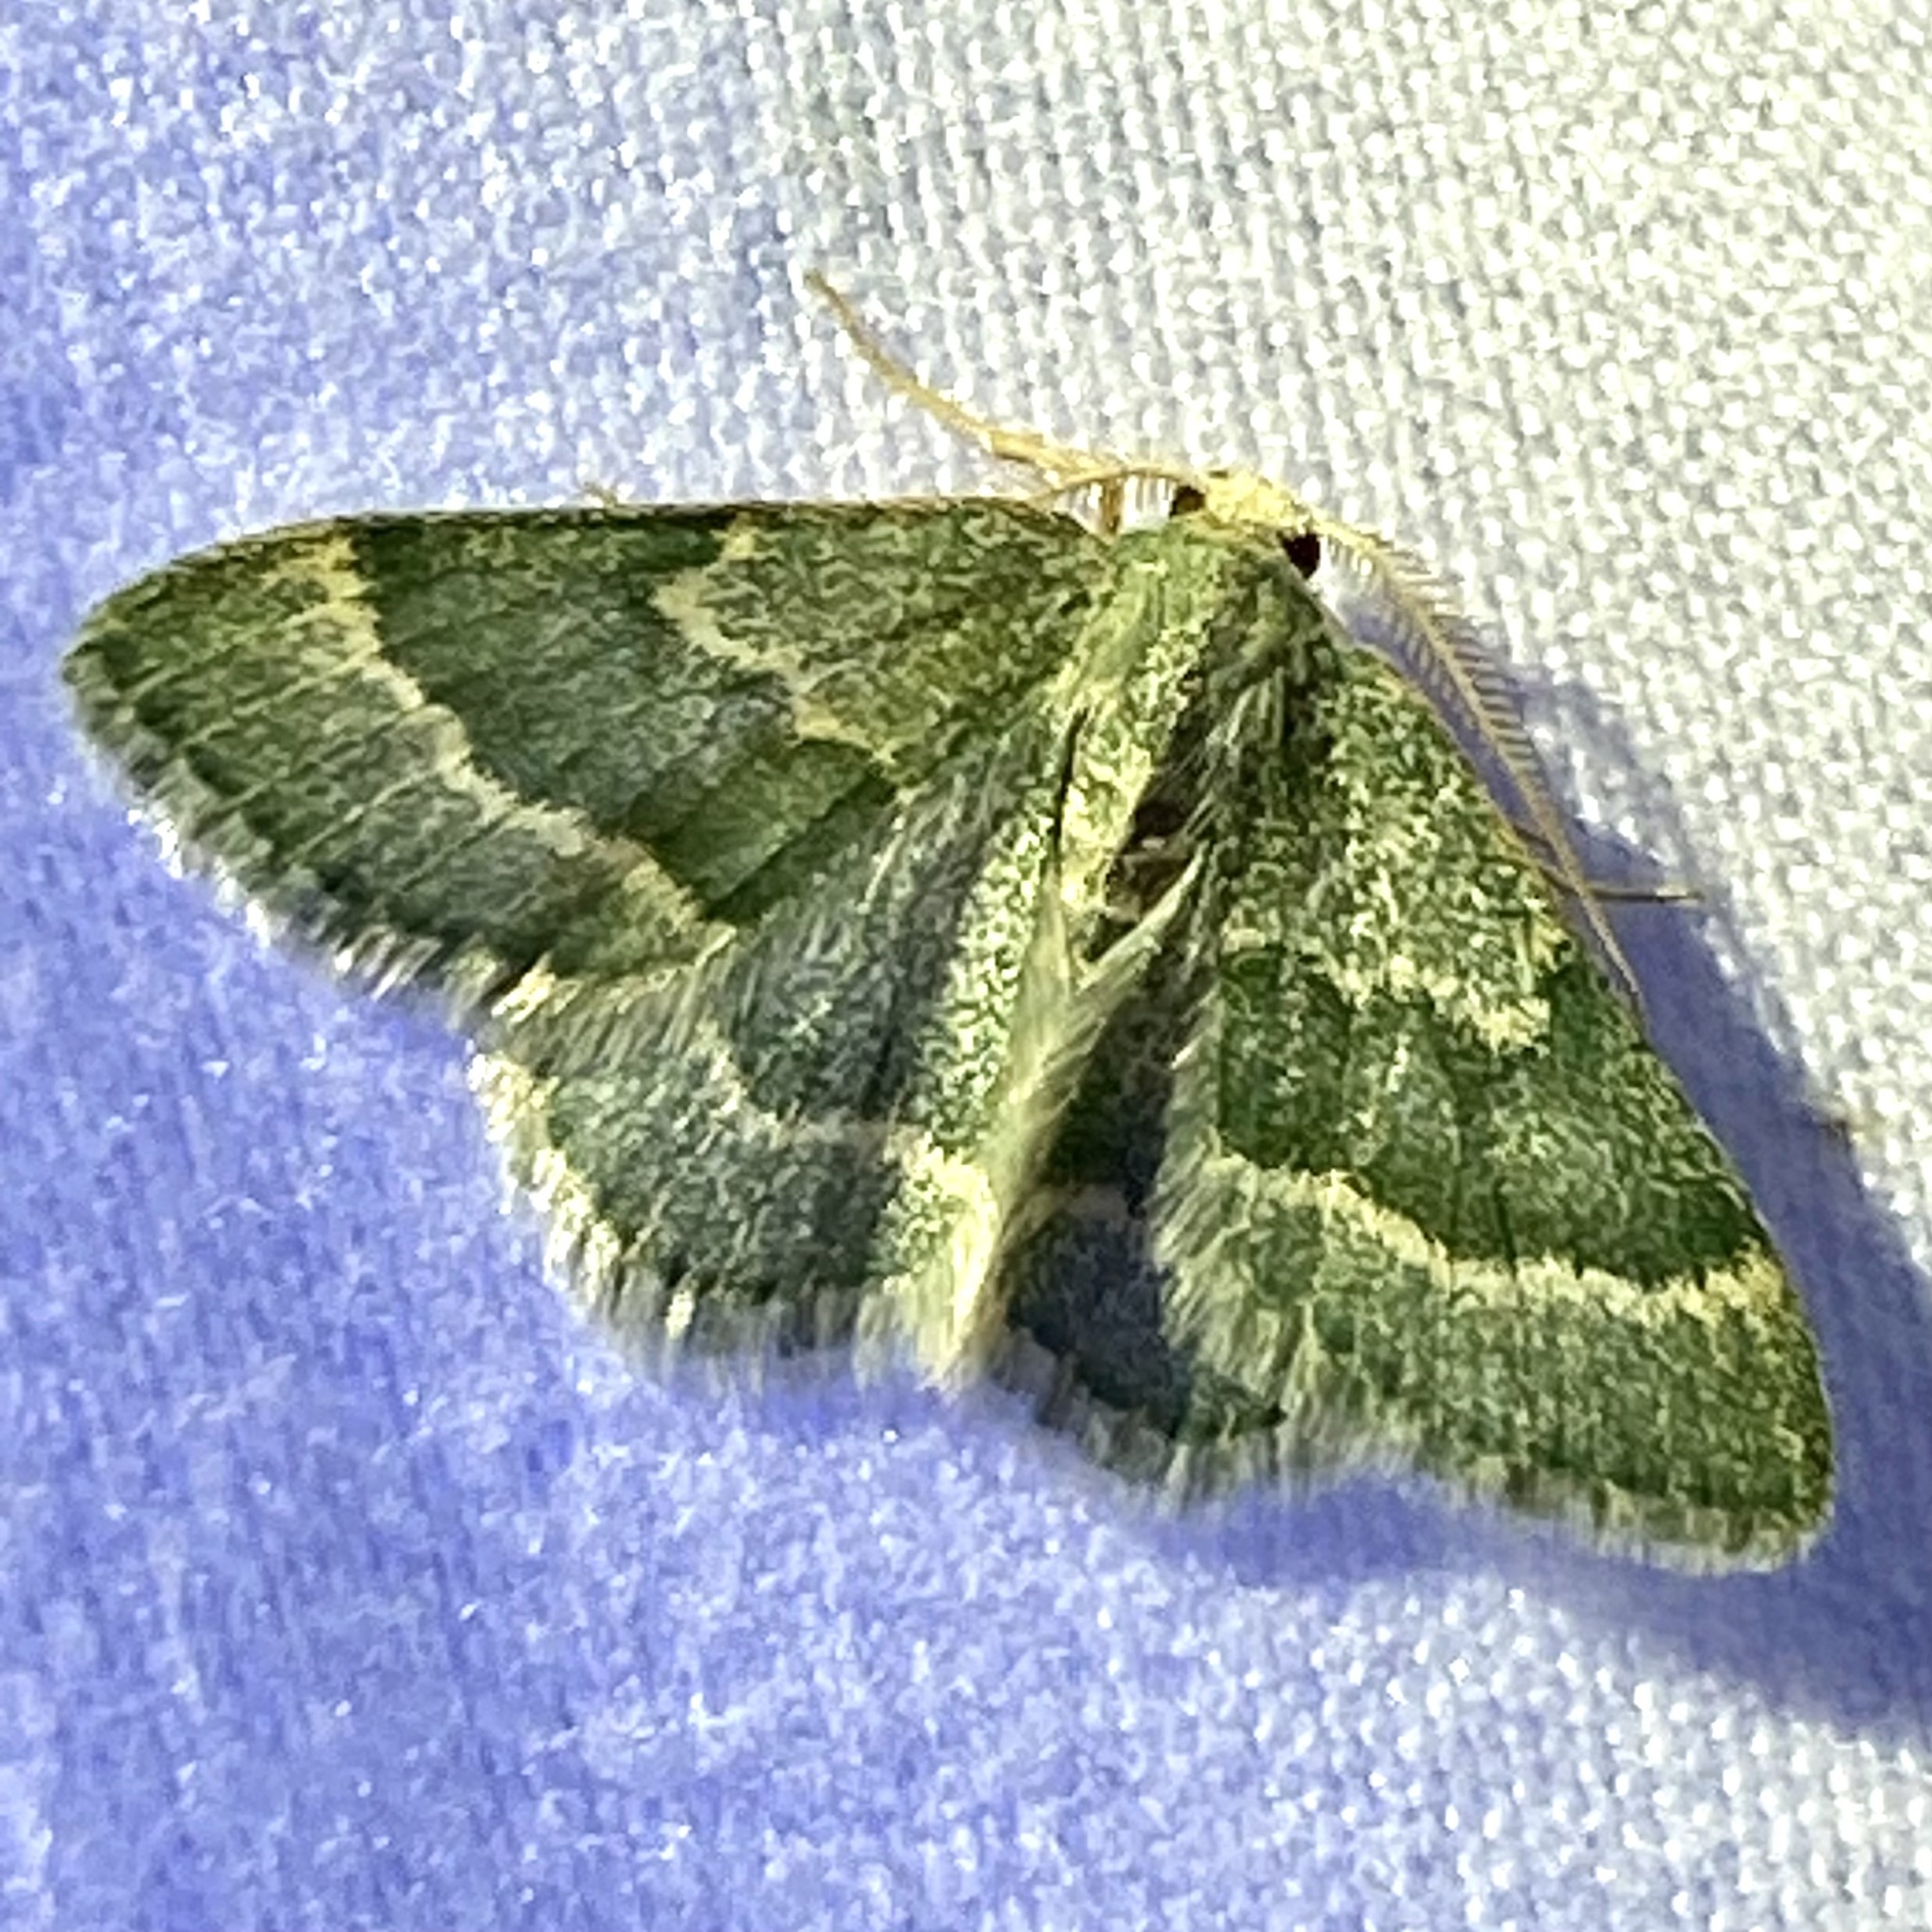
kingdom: Animalia
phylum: Arthropoda
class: Insecta
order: Lepidoptera
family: Geometridae
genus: Chlorochlamys
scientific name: Chlorochlamys chloroleucaria
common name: Blackberry looper
